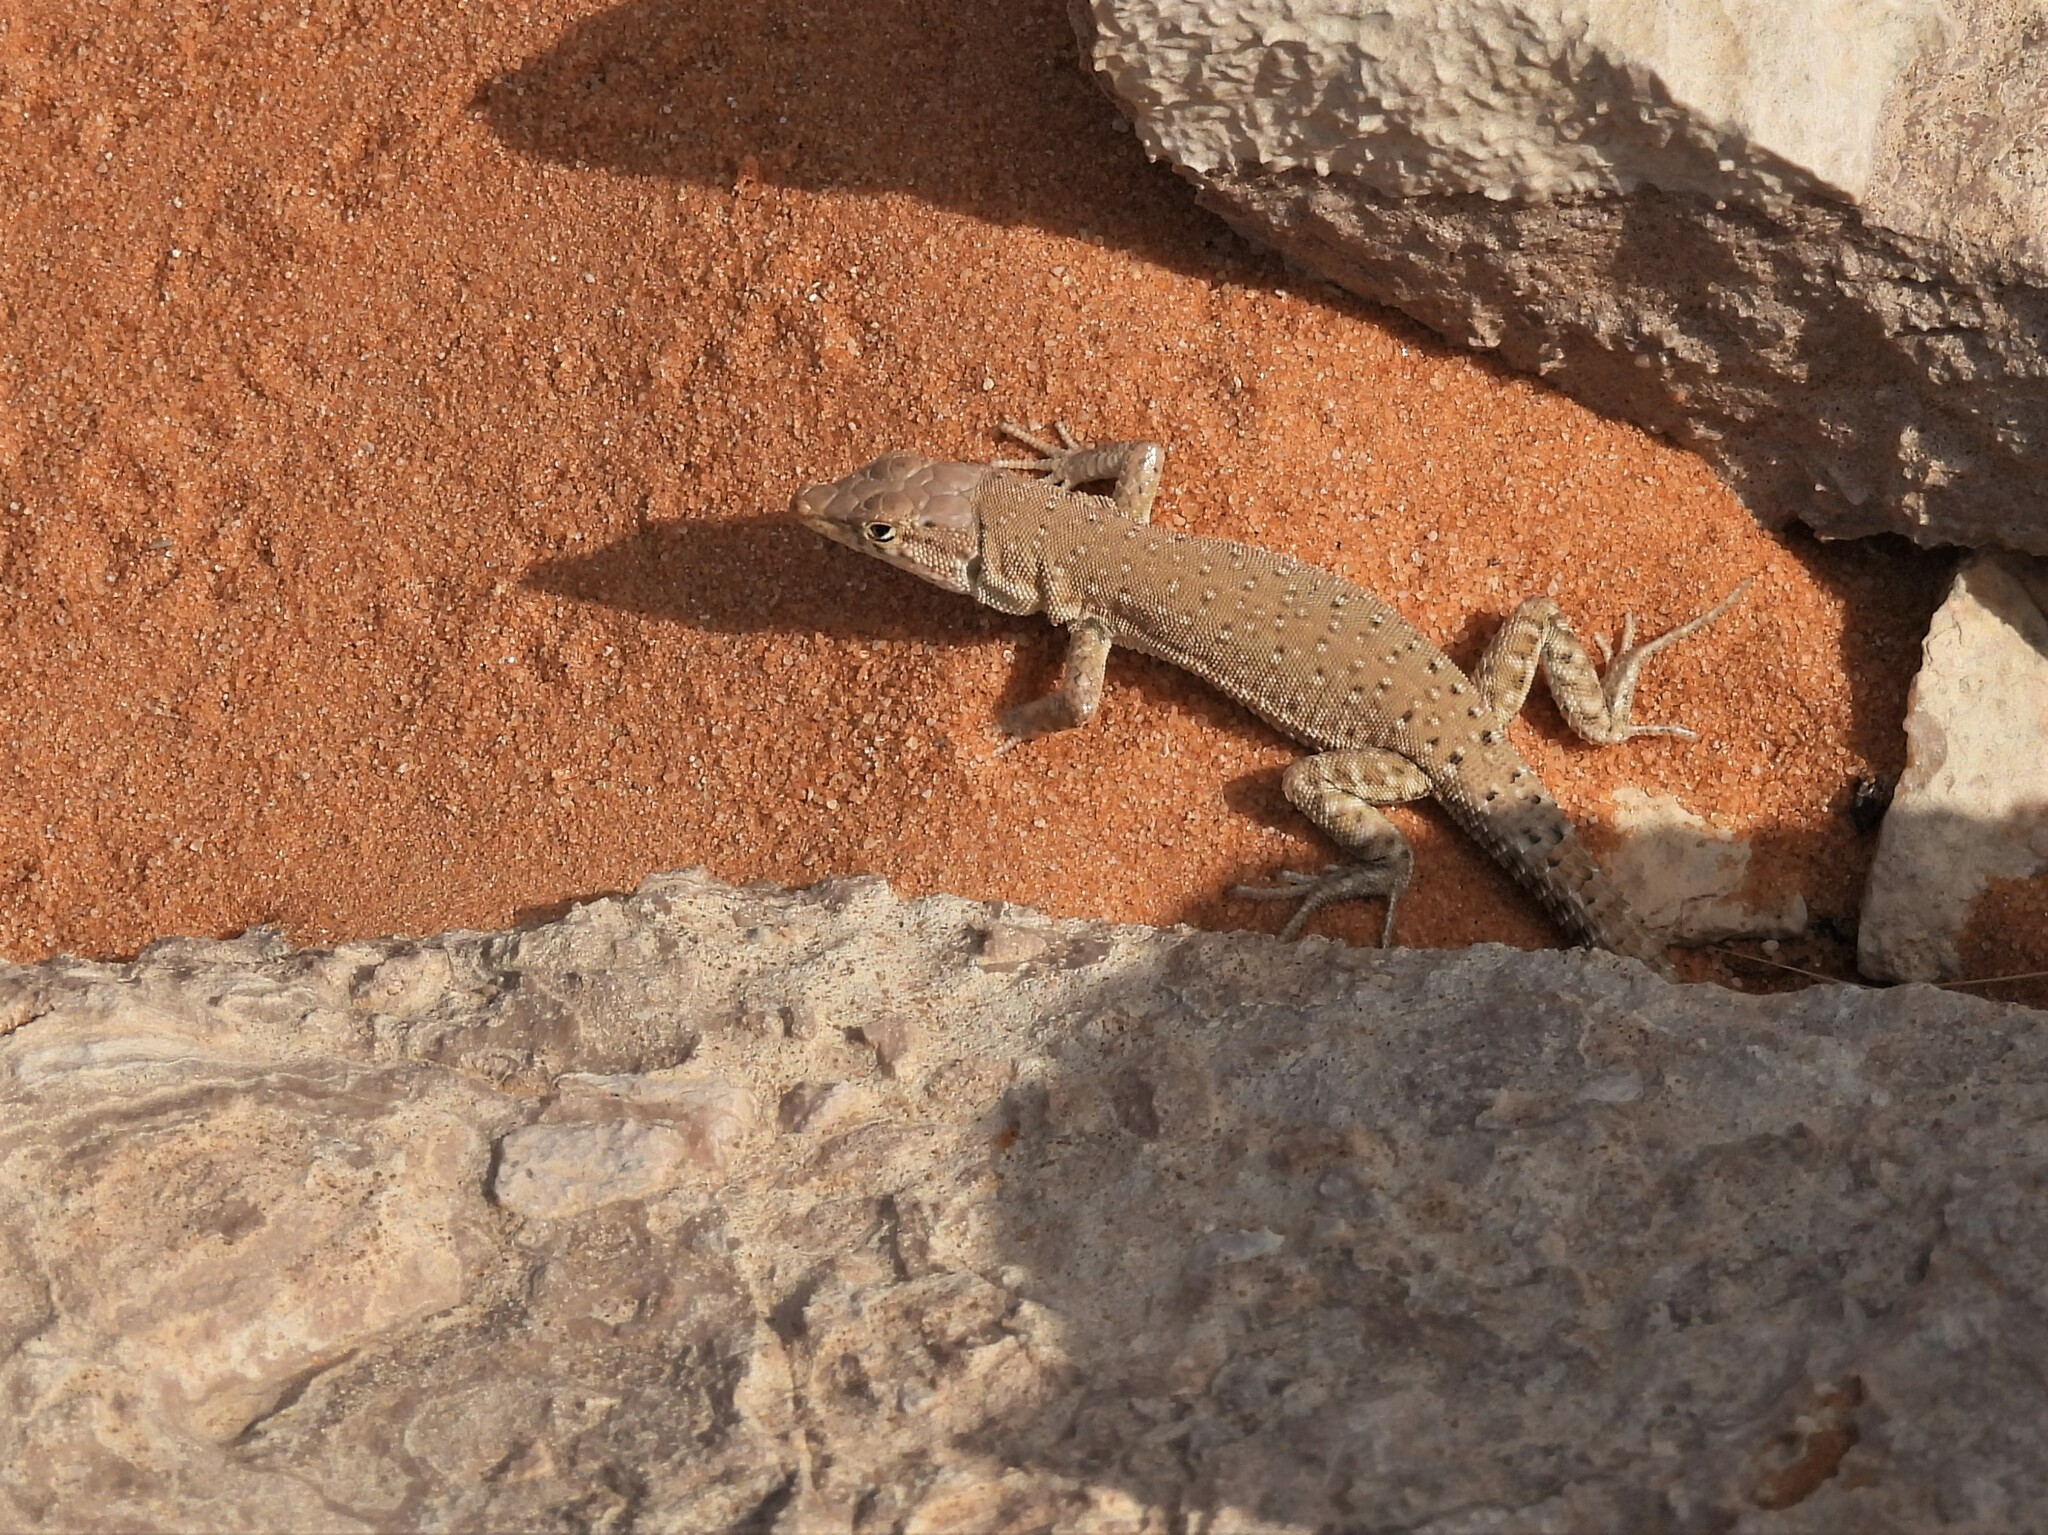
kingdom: Animalia
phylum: Chordata
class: Squamata
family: Lacertidae
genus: Mesalina
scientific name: Mesalina guttulata
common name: Desert lacerta
